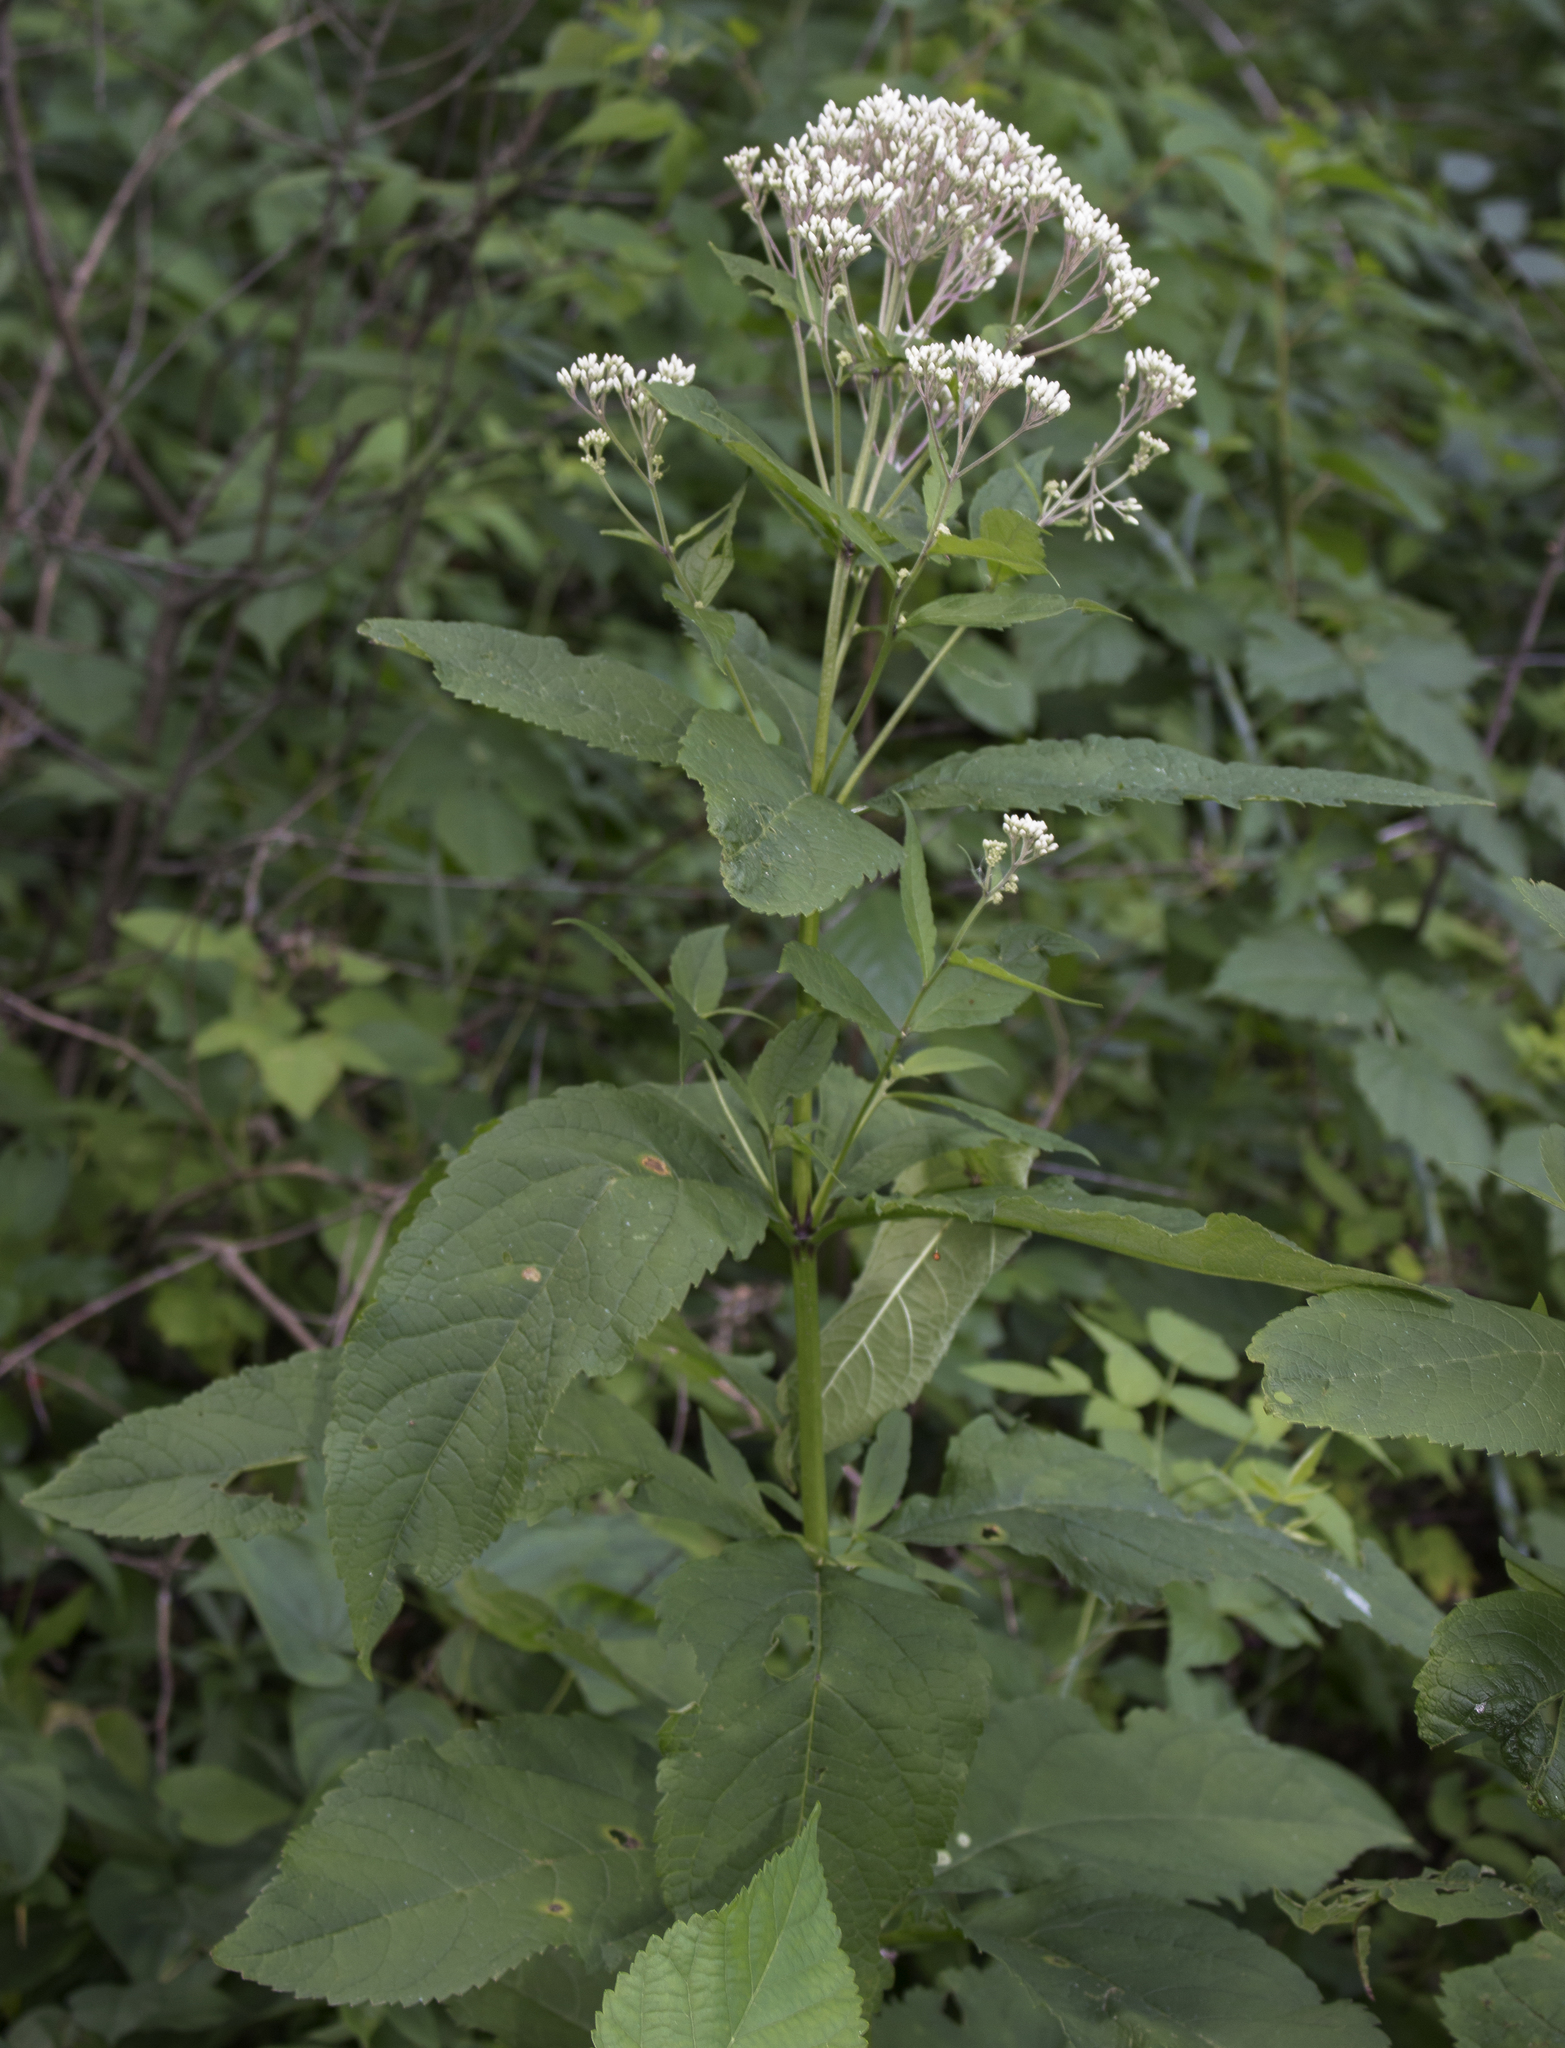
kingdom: Plantae
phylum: Tracheophyta
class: Magnoliopsida
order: Asterales
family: Asteraceae
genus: Eutrochium
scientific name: Eutrochium purpureum
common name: Gravelroot
